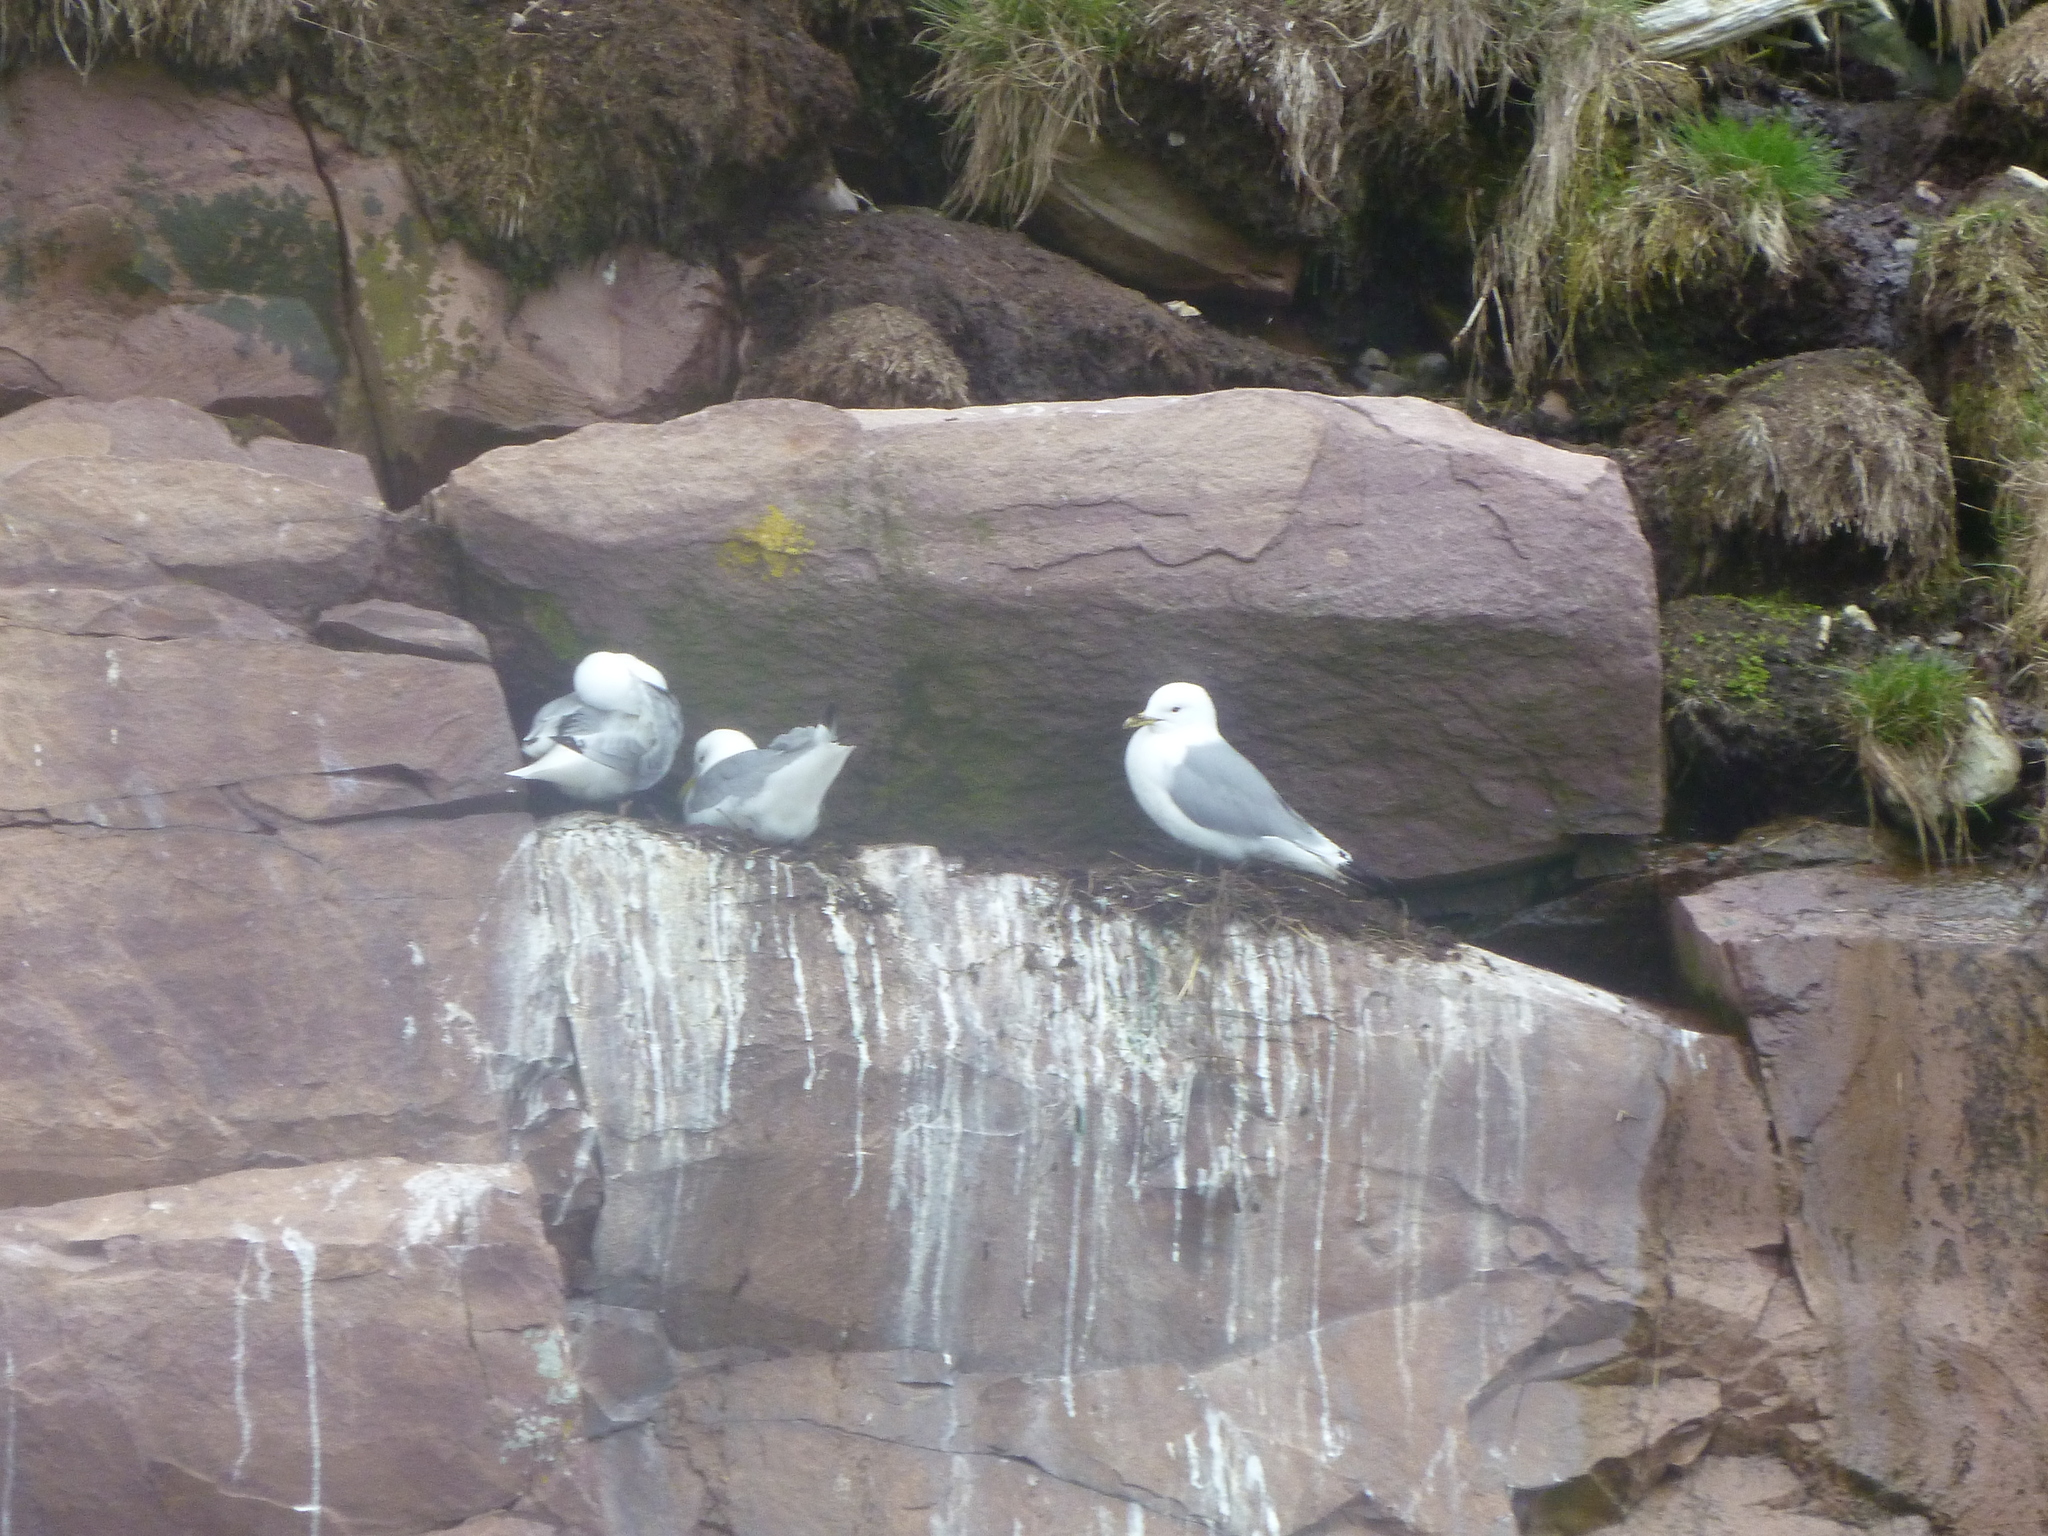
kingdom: Animalia
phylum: Chordata
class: Aves
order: Charadriiformes
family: Laridae
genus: Rissa
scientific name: Rissa tridactyla
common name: Black-legged kittiwake
